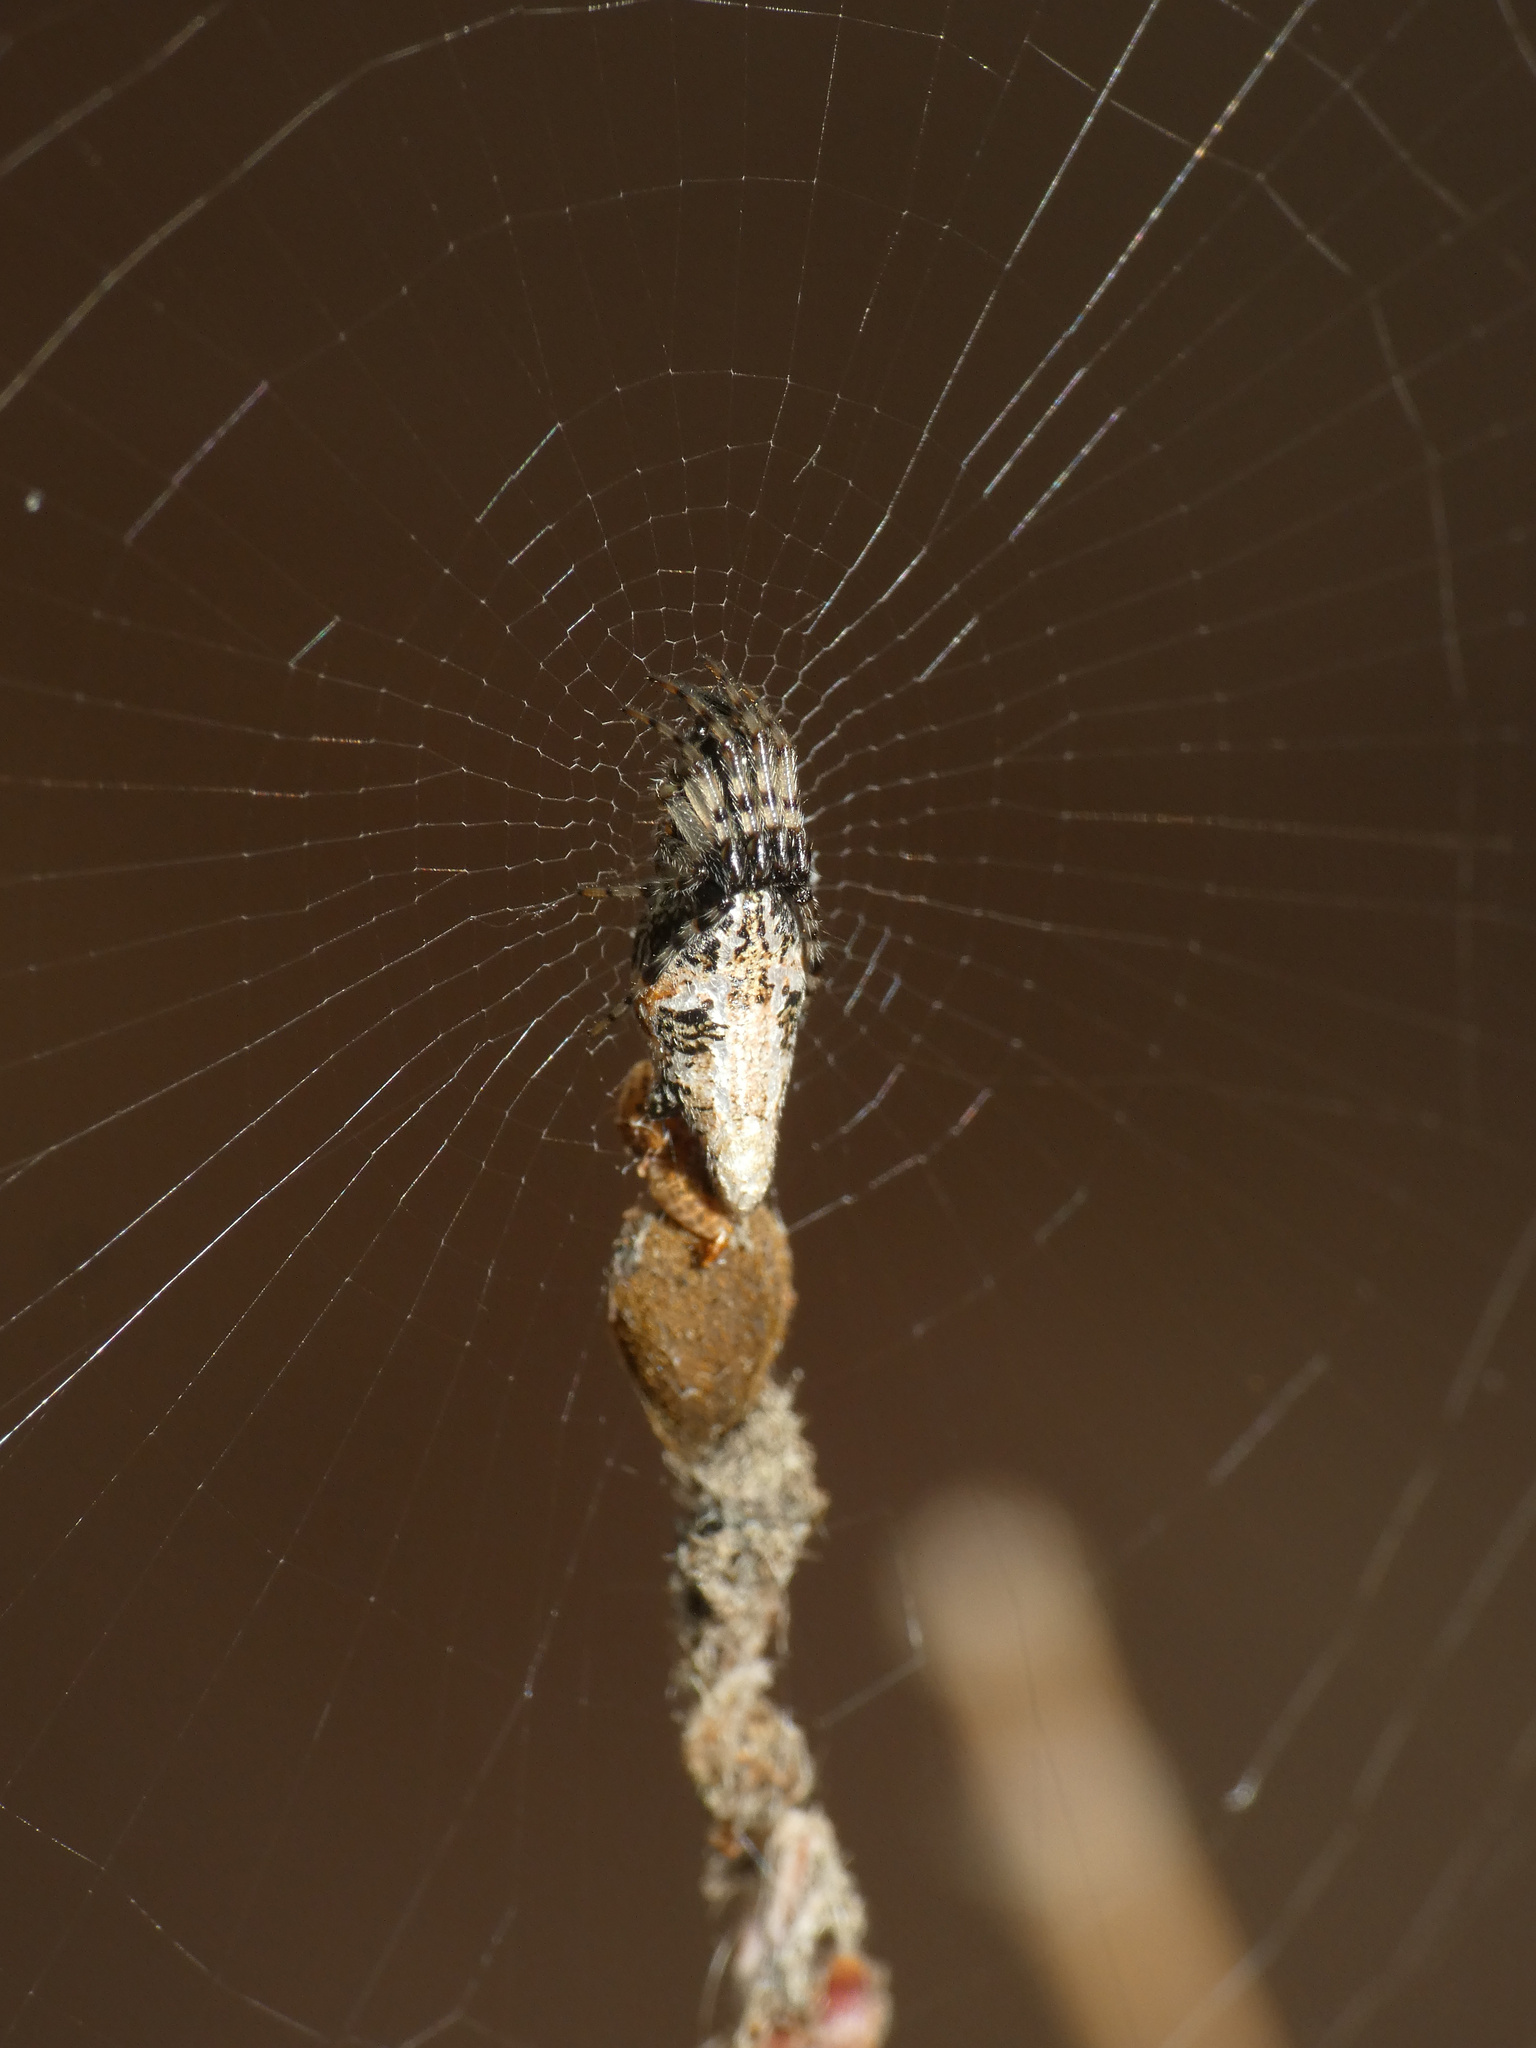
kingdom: Animalia
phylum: Arthropoda
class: Arachnida
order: Araneae
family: Araneidae
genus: Cyclosa
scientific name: Cyclosa insulana
